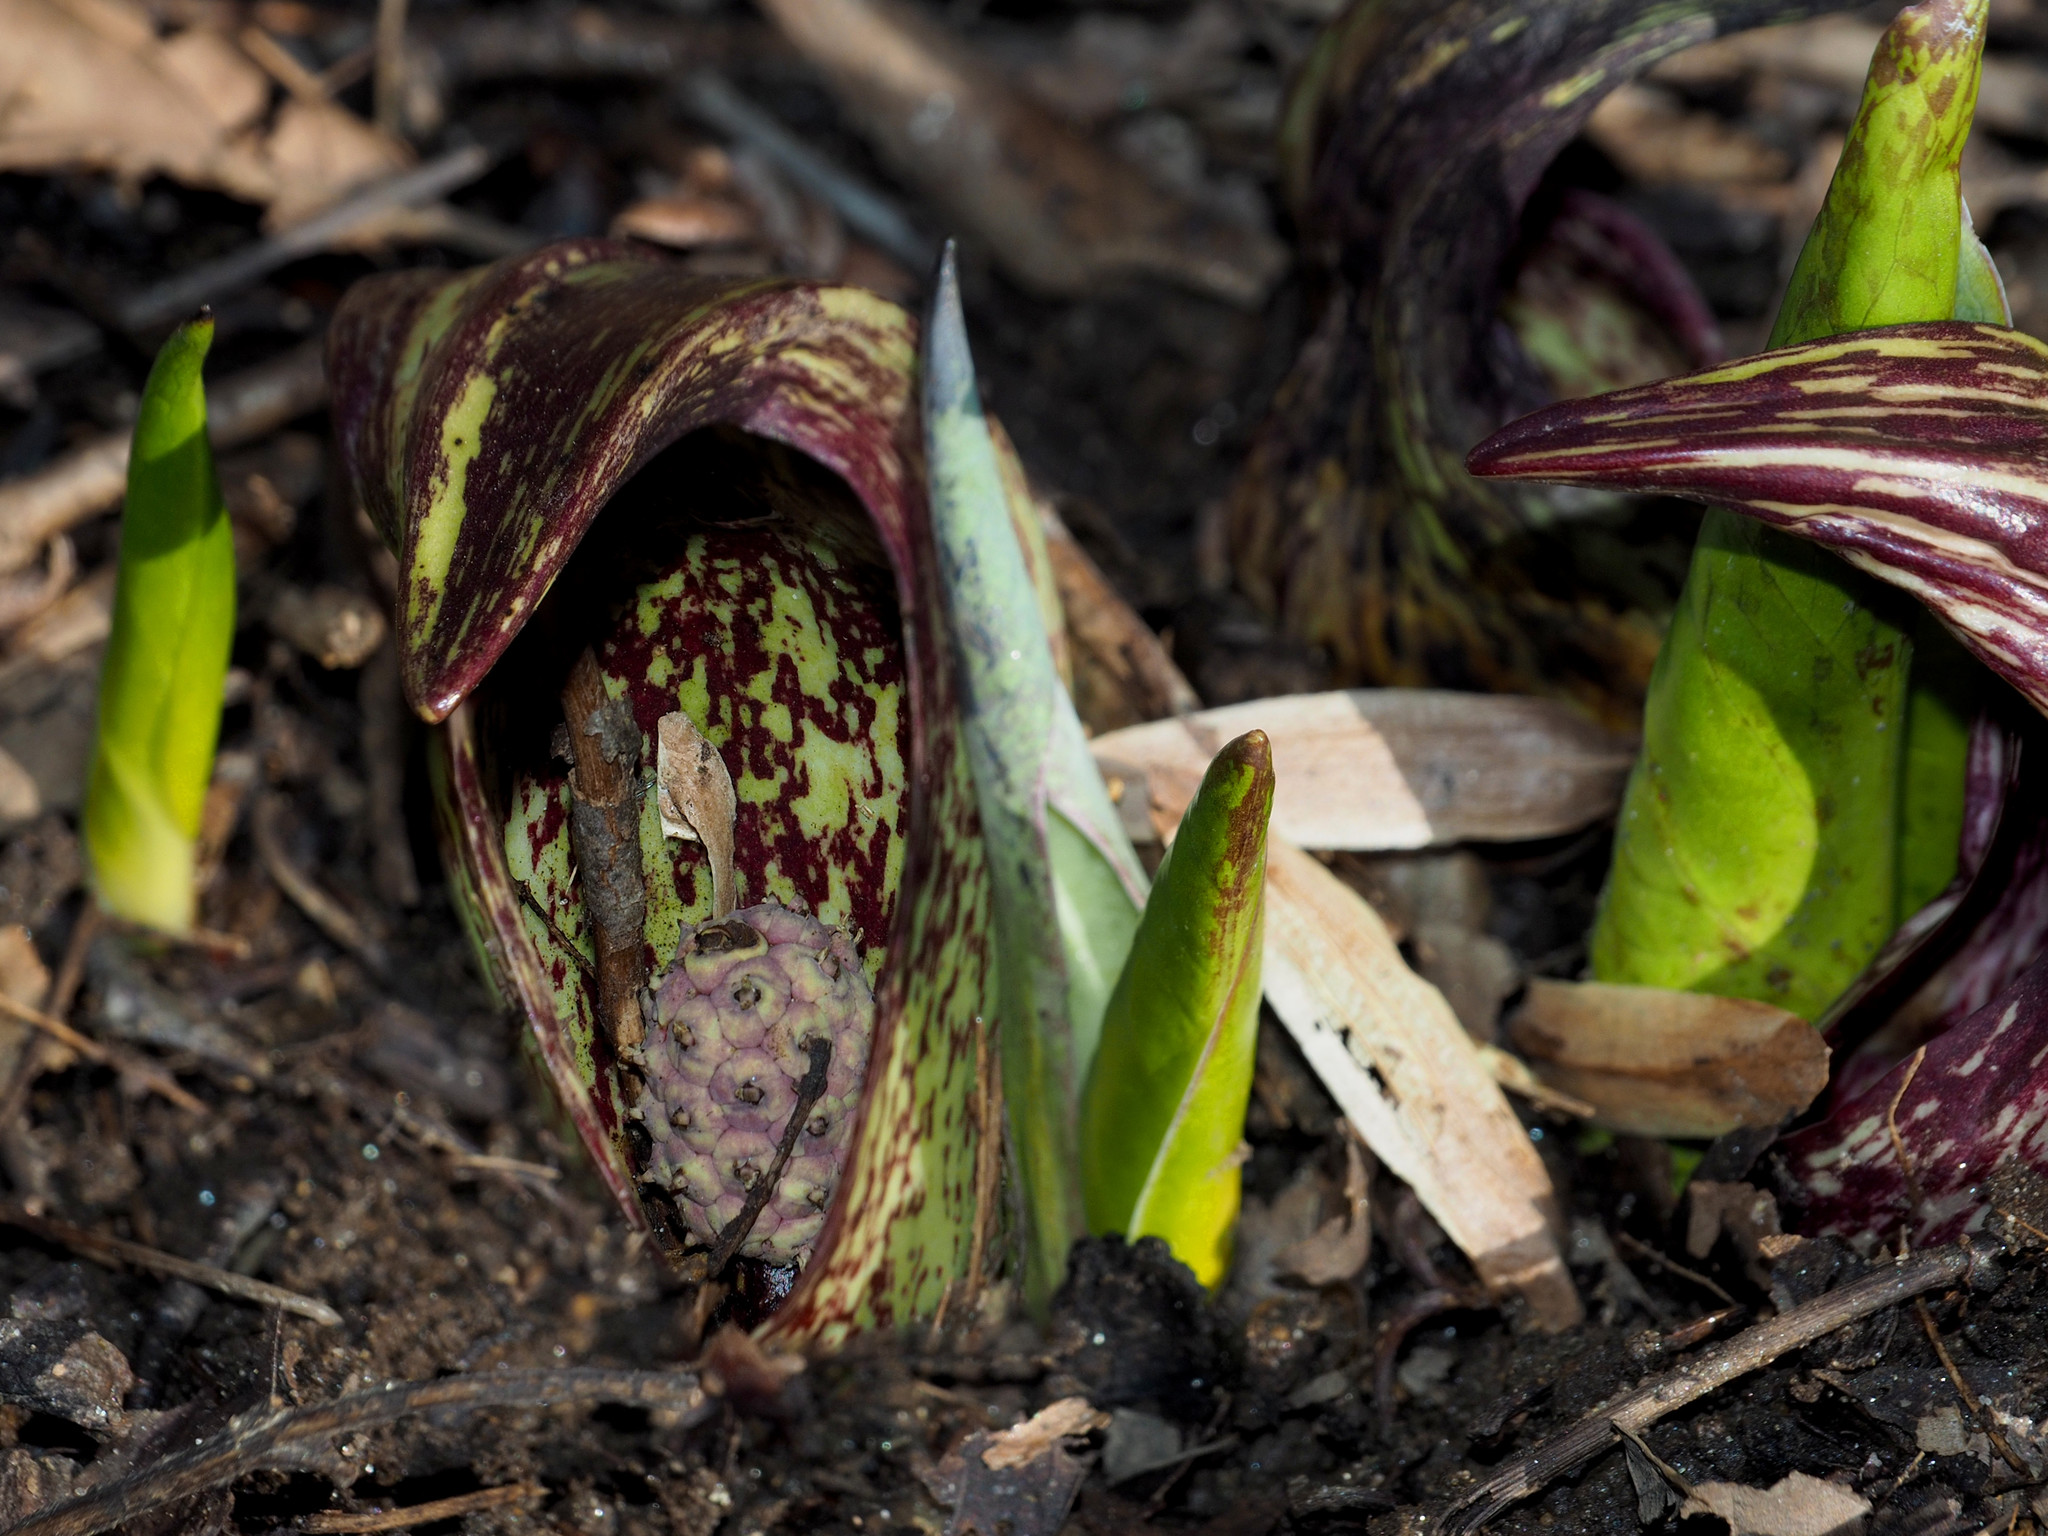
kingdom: Plantae
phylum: Tracheophyta
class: Liliopsida
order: Alismatales
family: Araceae
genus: Symplocarpus
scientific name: Symplocarpus foetidus
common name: Eastern skunk cabbage
